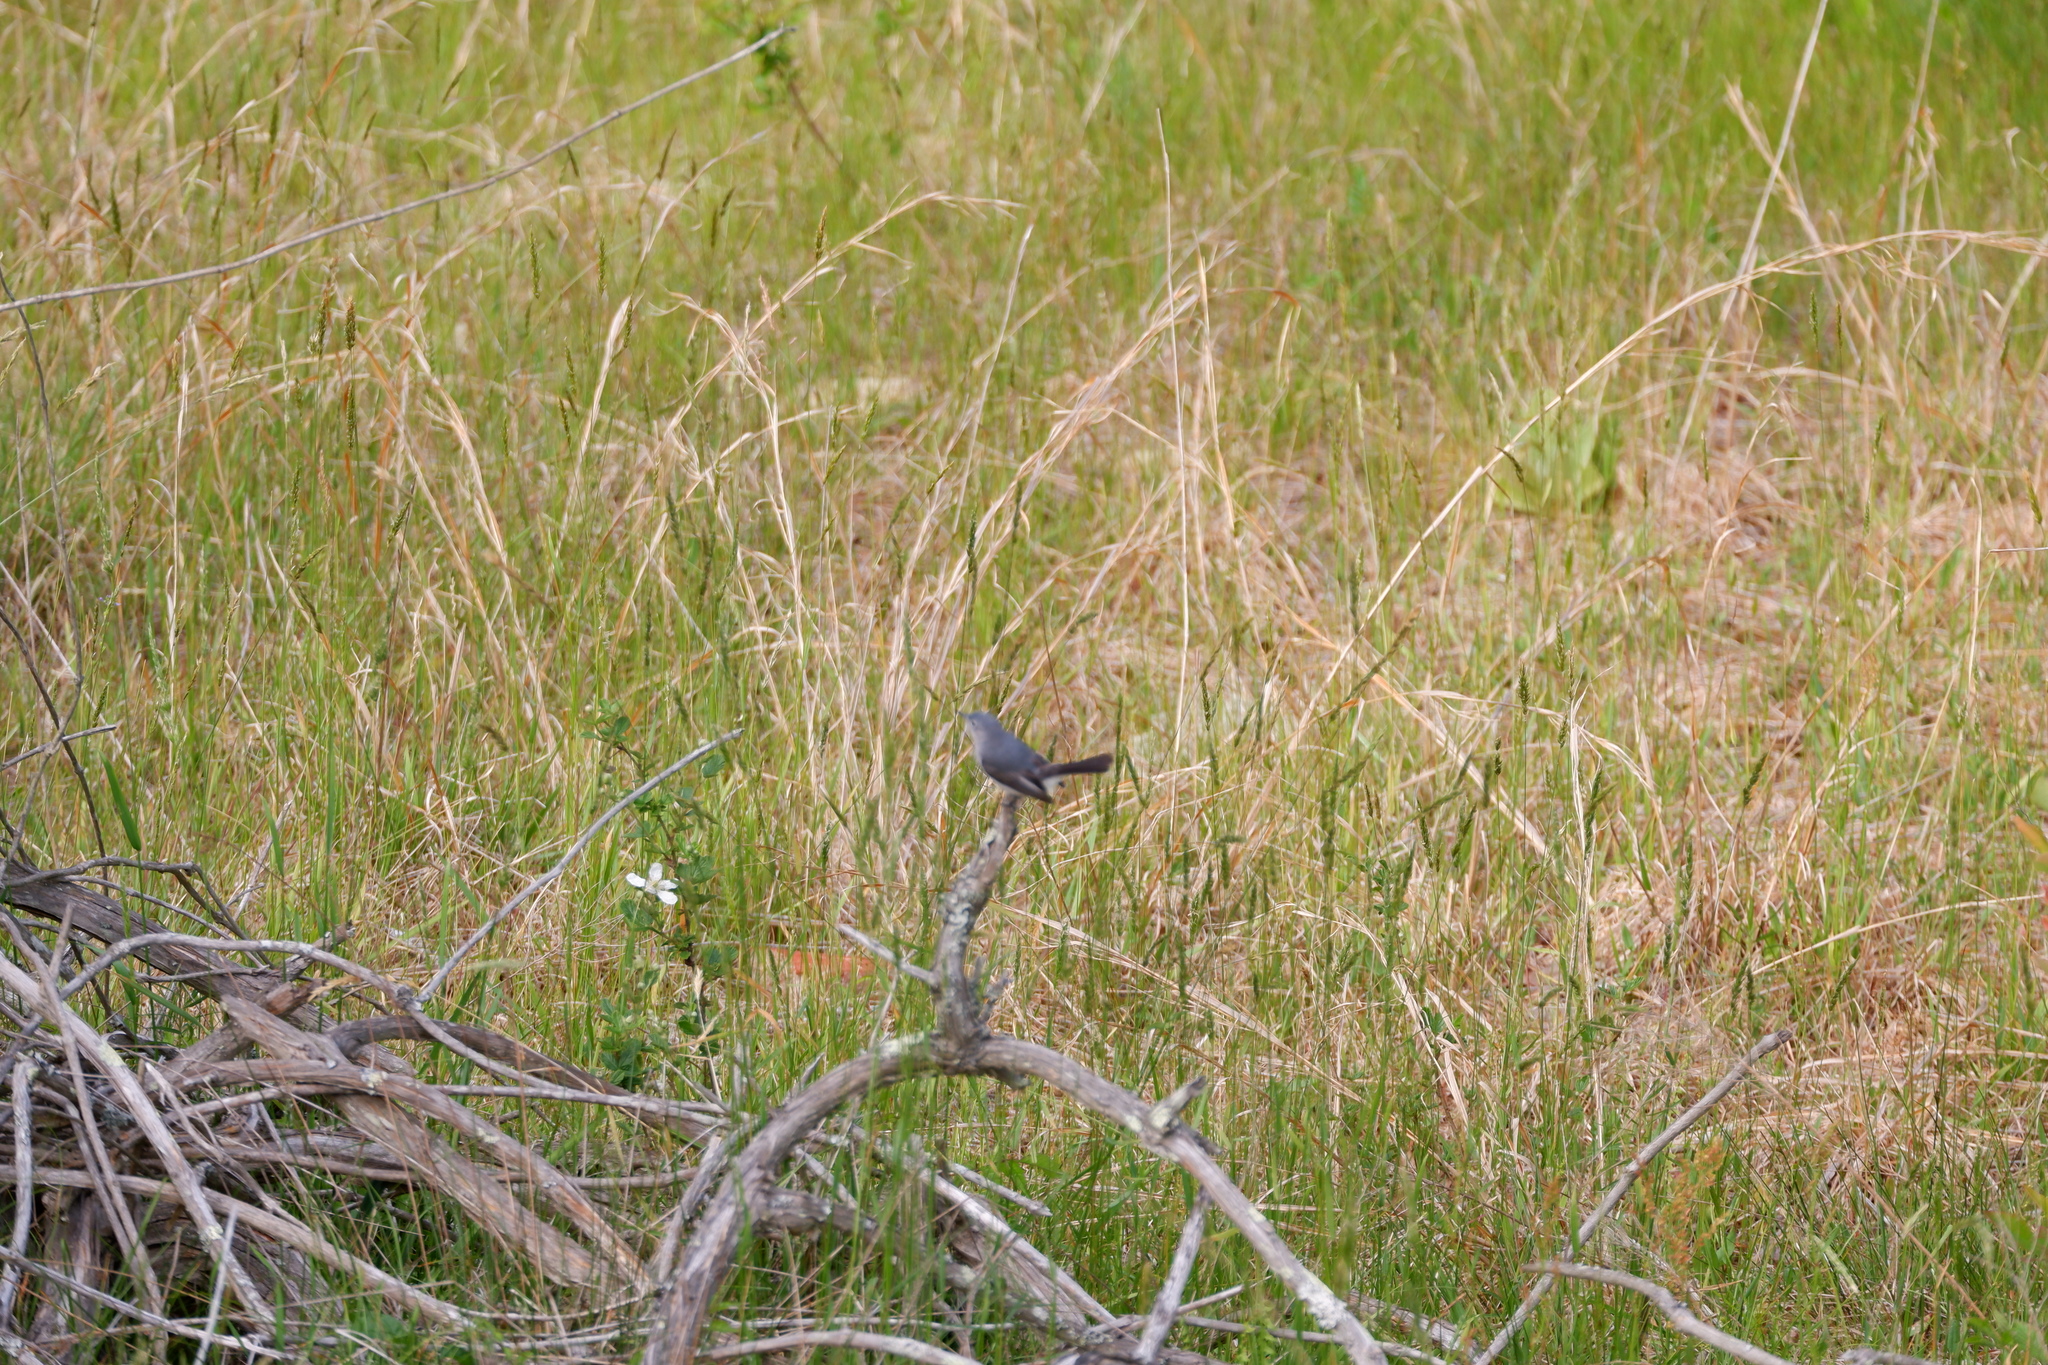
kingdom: Animalia
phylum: Chordata
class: Aves
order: Passeriformes
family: Polioptilidae
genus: Polioptila
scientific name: Polioptila caerulea
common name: Blue-gray gnatcatcher
